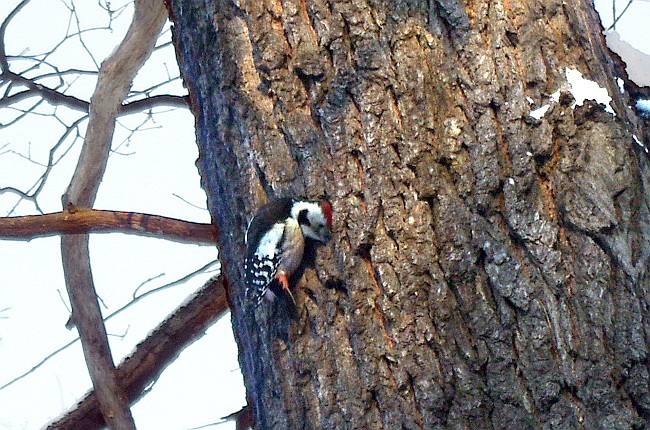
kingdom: Animalia
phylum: Chordata
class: Aves
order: Piciformes
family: Picidae
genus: Dendrocoptes
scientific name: Dendrocoptes medius
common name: Middle spotted woodpecker
